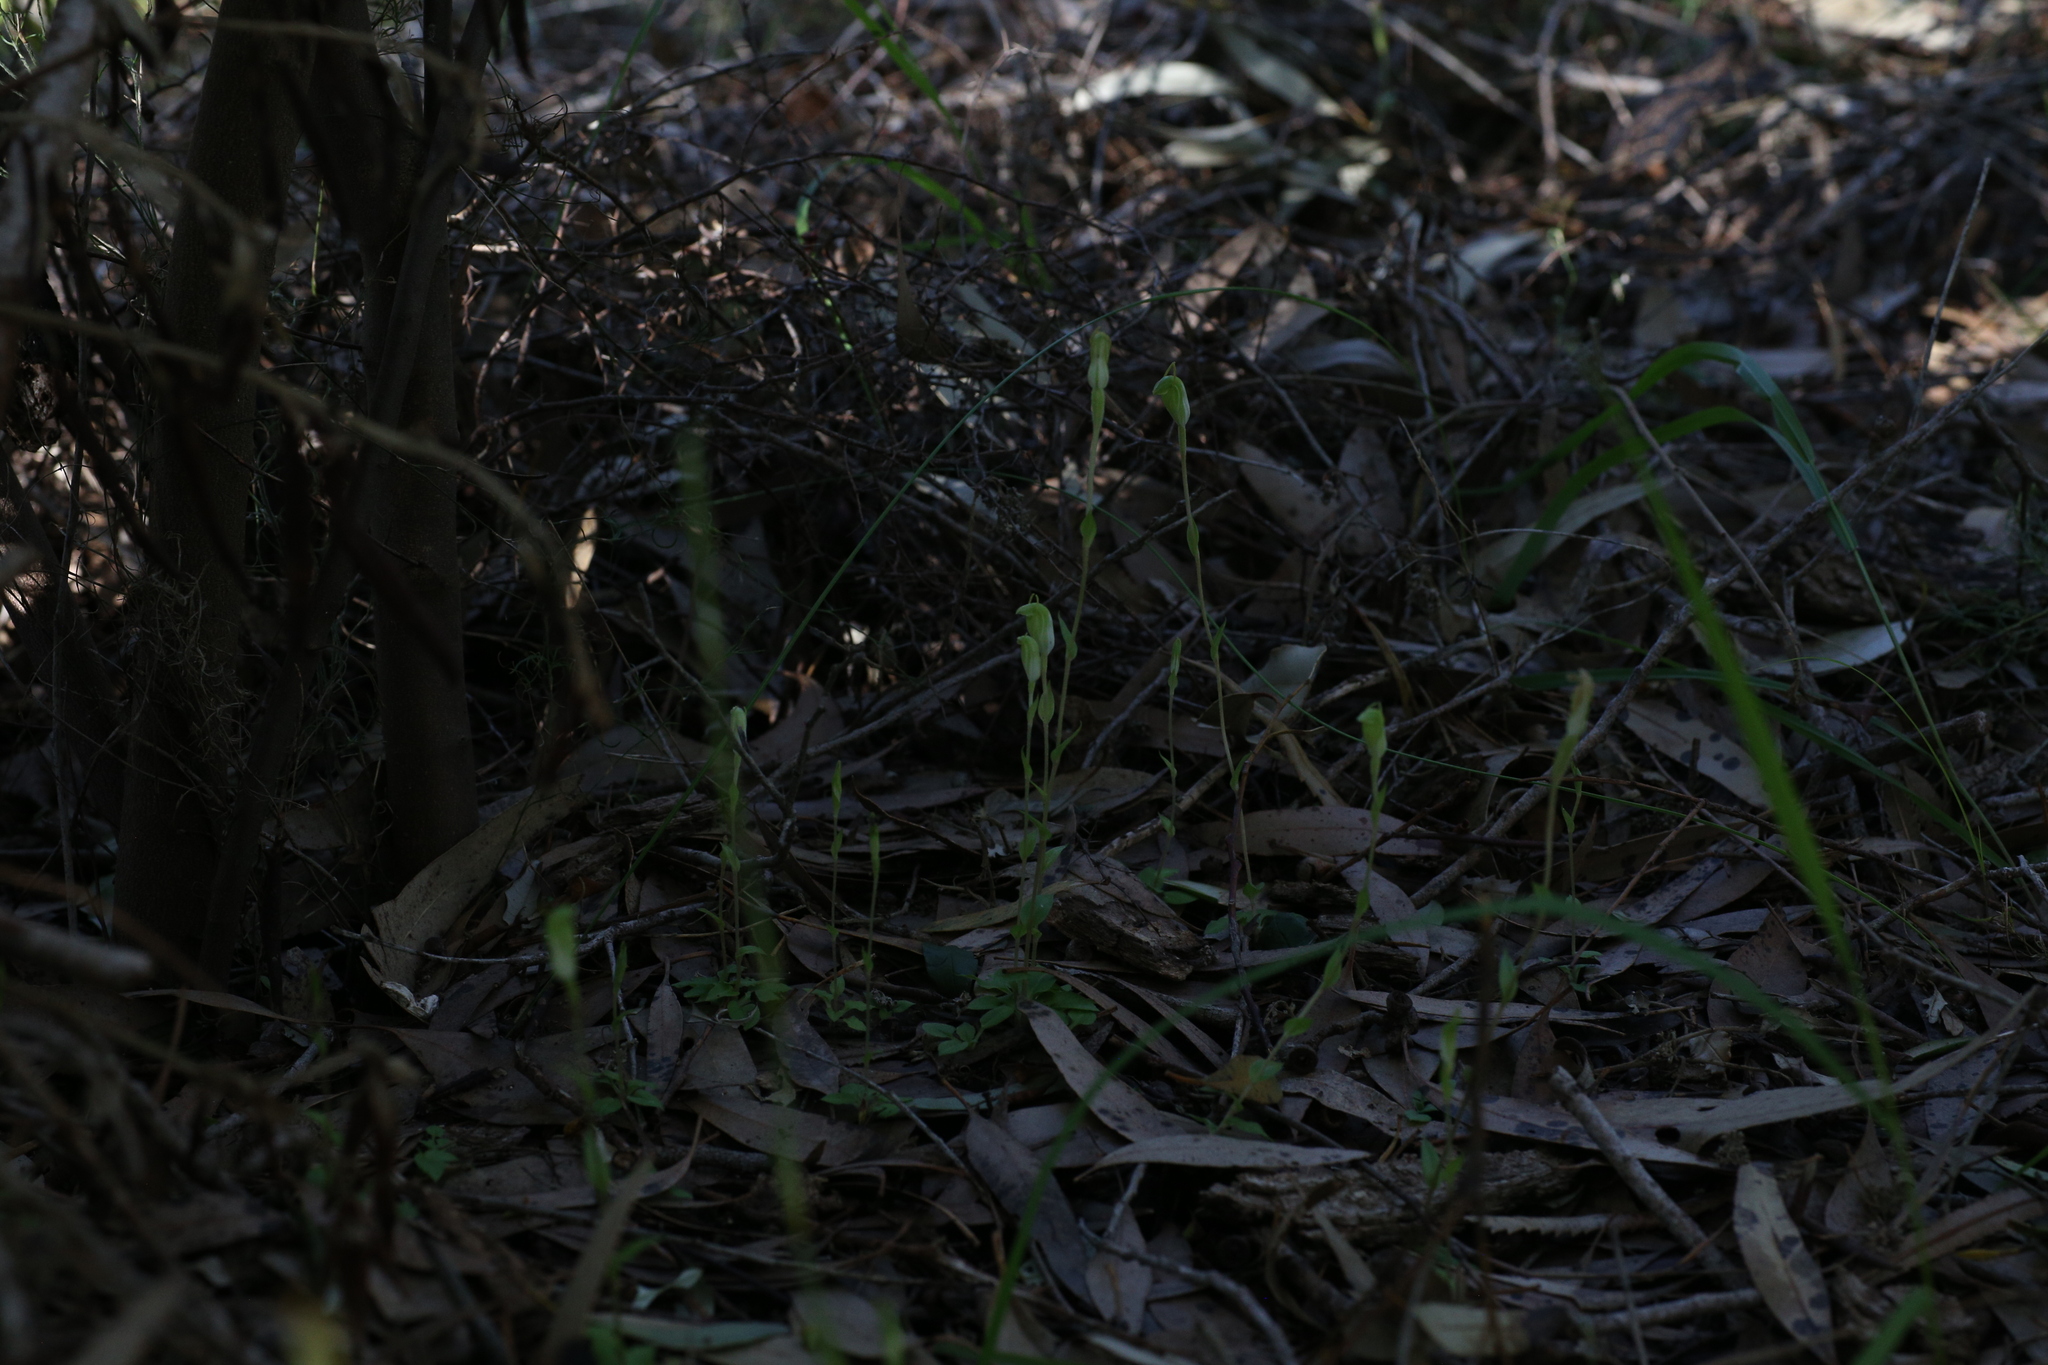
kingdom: Plantae
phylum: Tracheophyta
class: Liliopsida
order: Asparagales
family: Orchidaceae
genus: Pterostylis
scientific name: Pterostylis brevisepala
